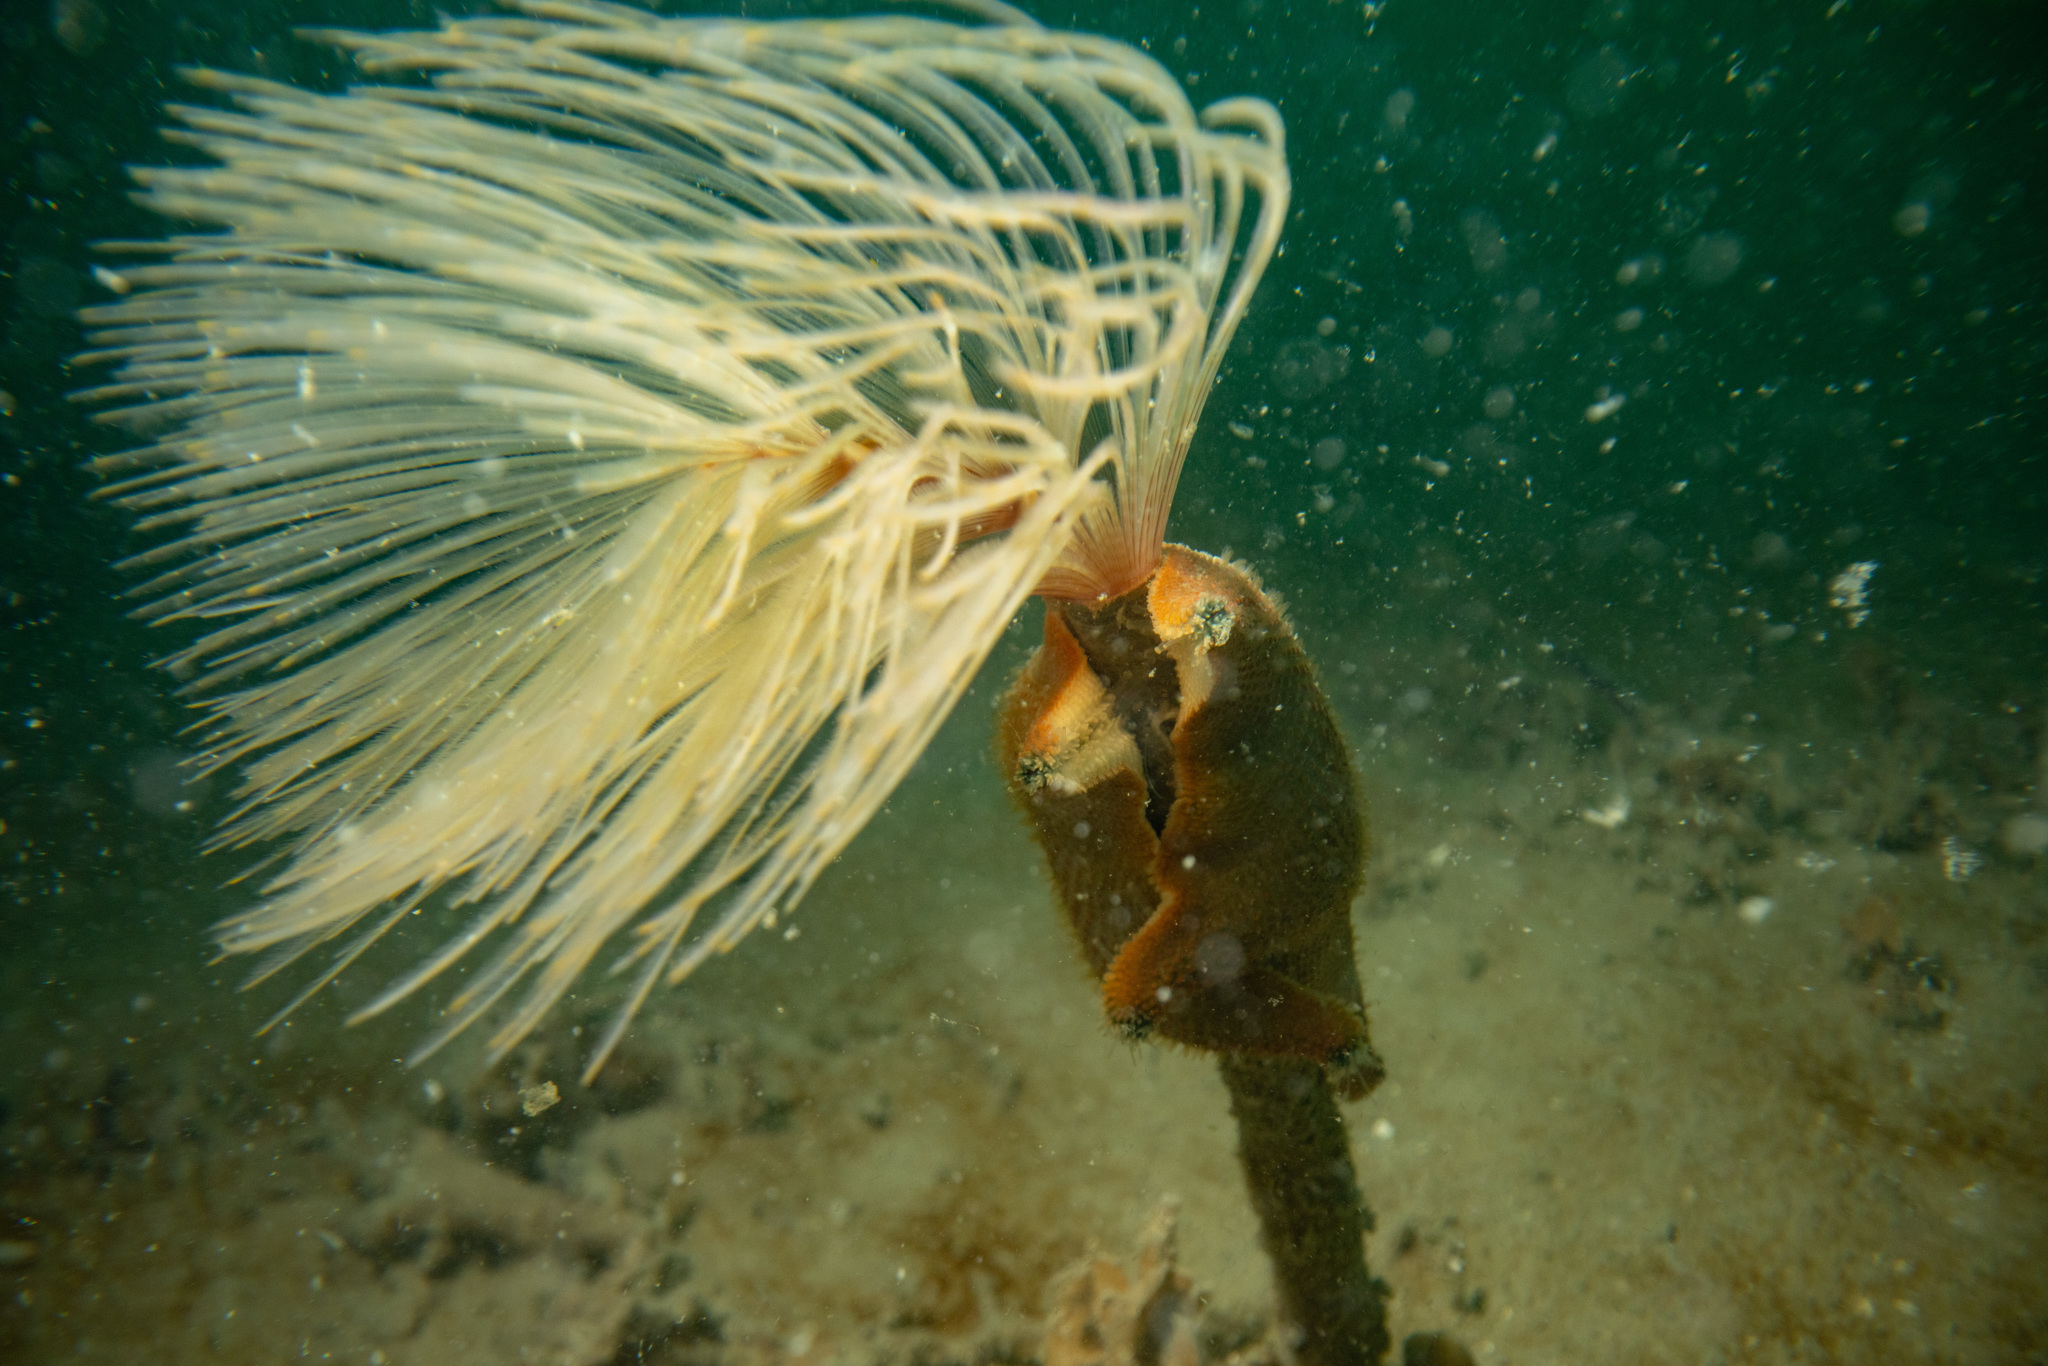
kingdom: Animalia
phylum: Echinodermata
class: Asteroidea
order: Valvatida
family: Asterinidae
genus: Patiriella
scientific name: Patiriella regularis
